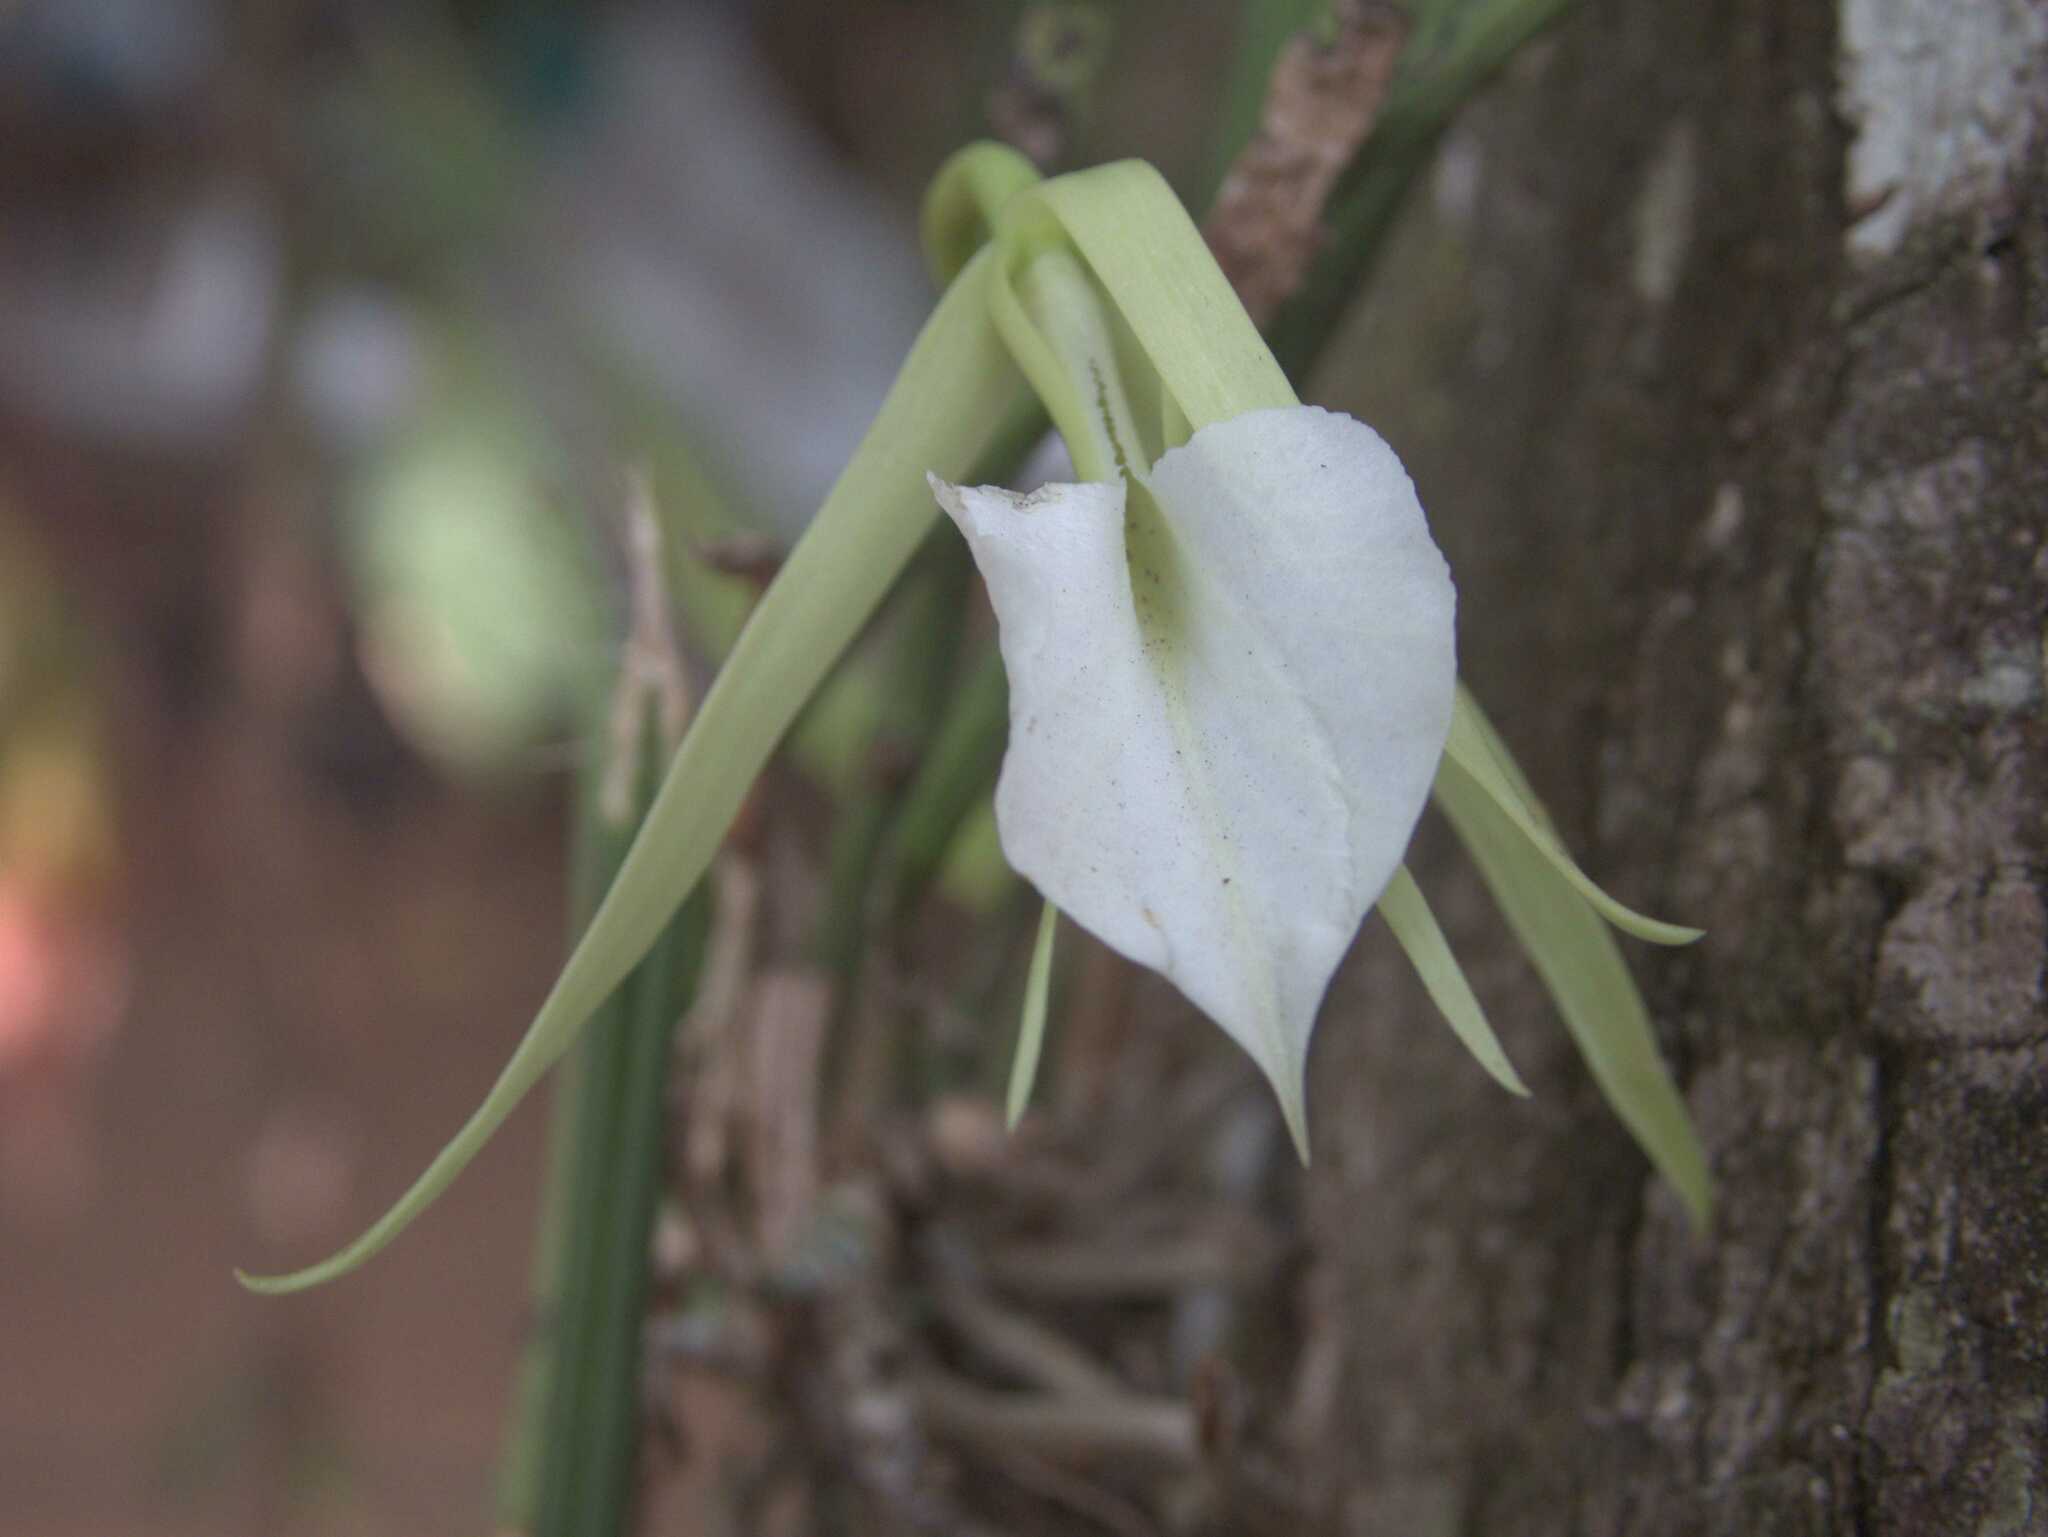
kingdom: Plantae
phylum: Tracheophyta
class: Liliopsida
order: Asparagales
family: Orchidaceae
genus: Brassavola
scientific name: Brassavola nodosa
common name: Lady of the night
